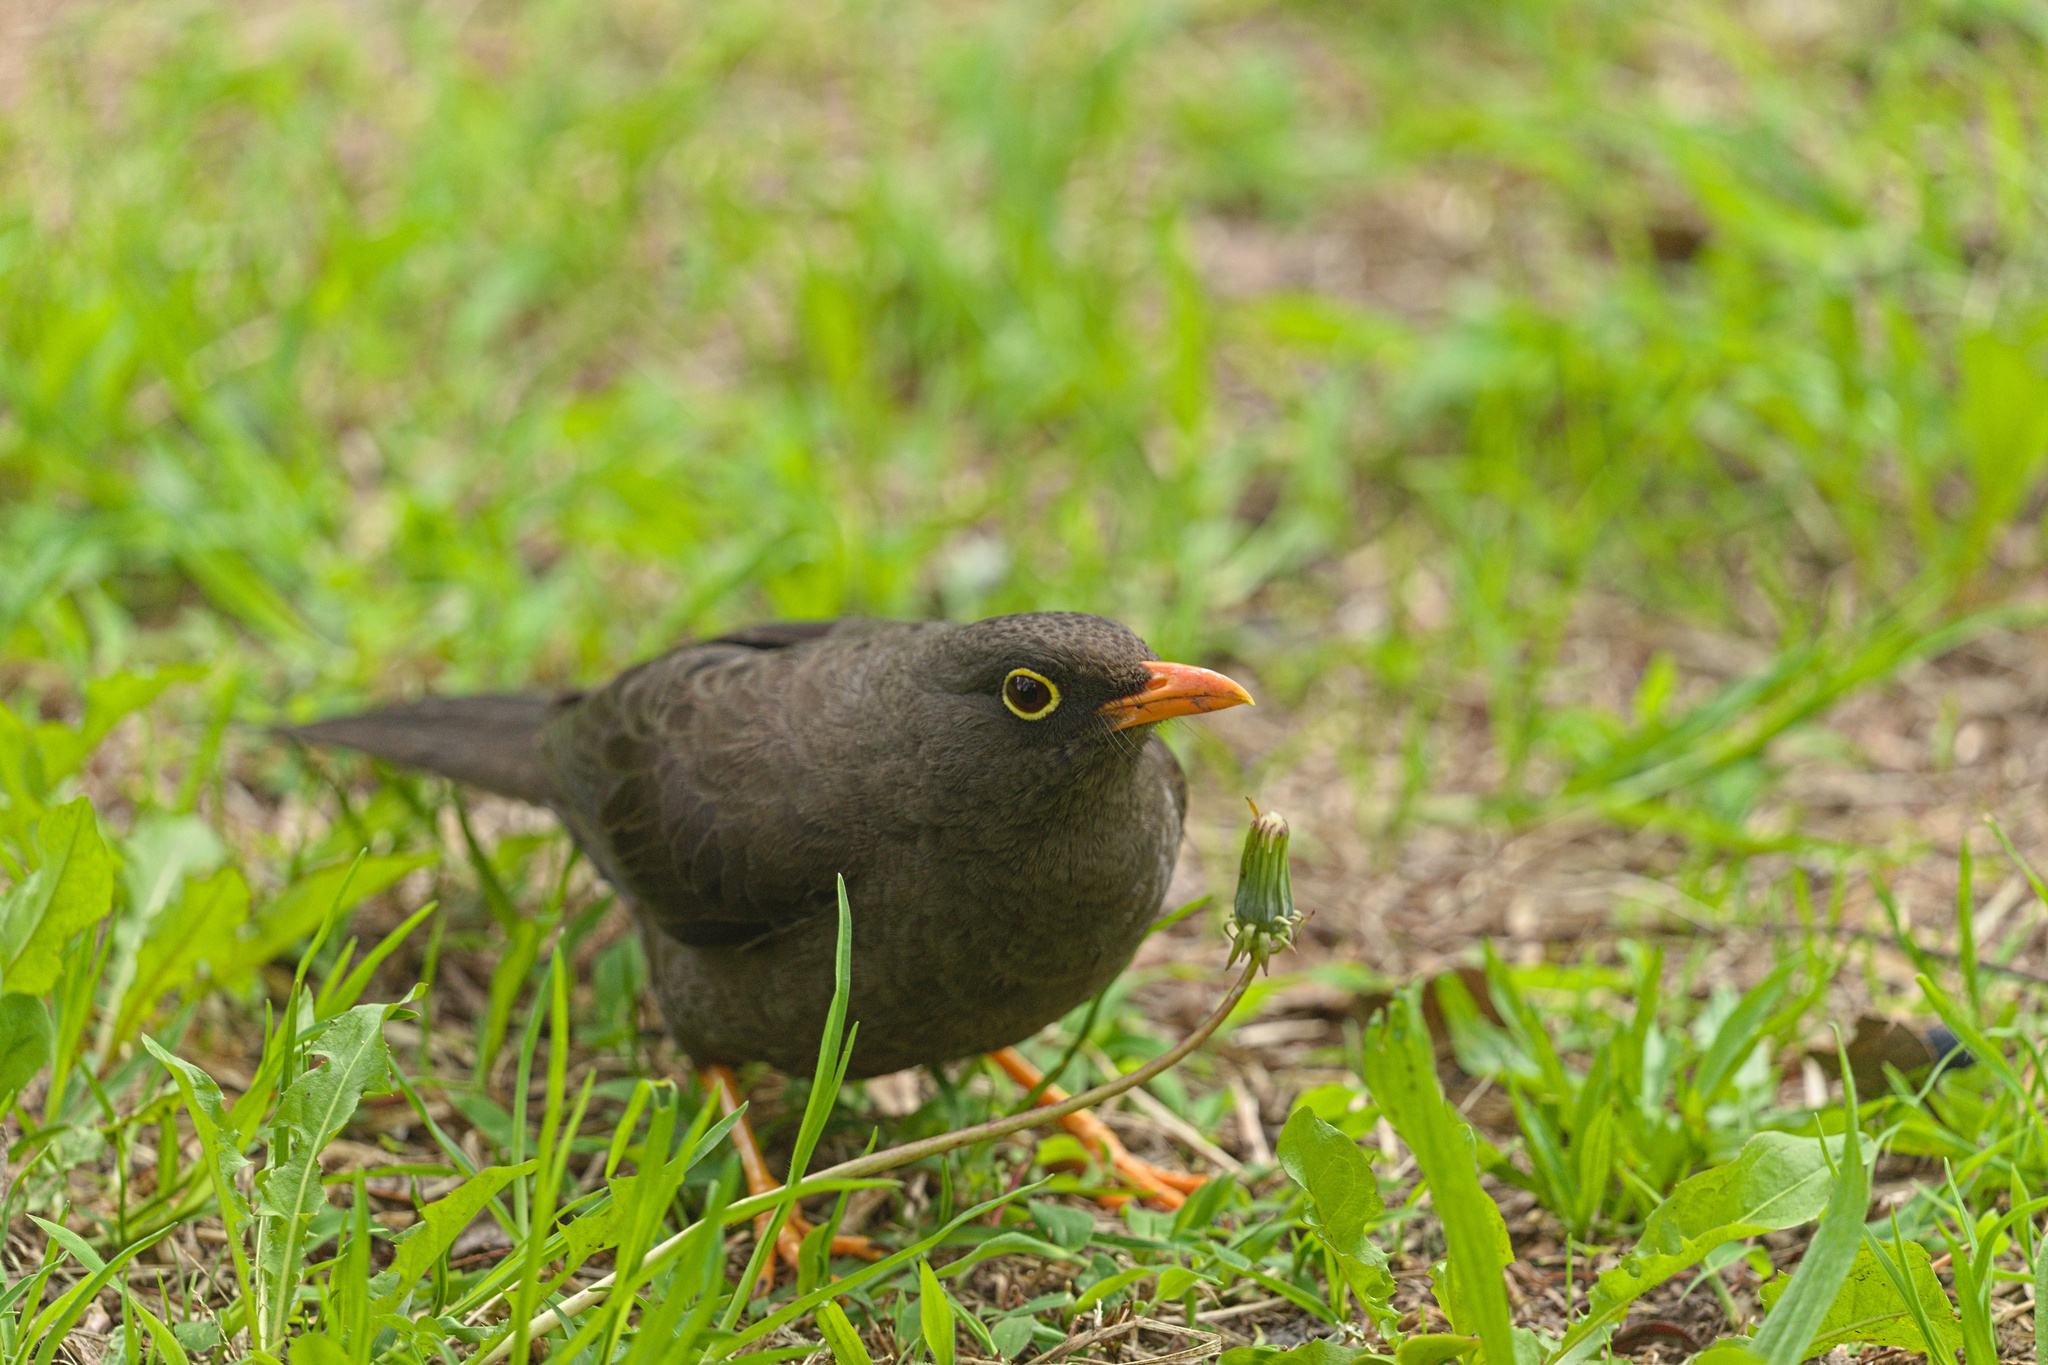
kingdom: Animalia
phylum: Chordata
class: Aves
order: Passeriformes
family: Turdidae
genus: Turdus
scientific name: Turdus fuscater
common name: Great thrush
